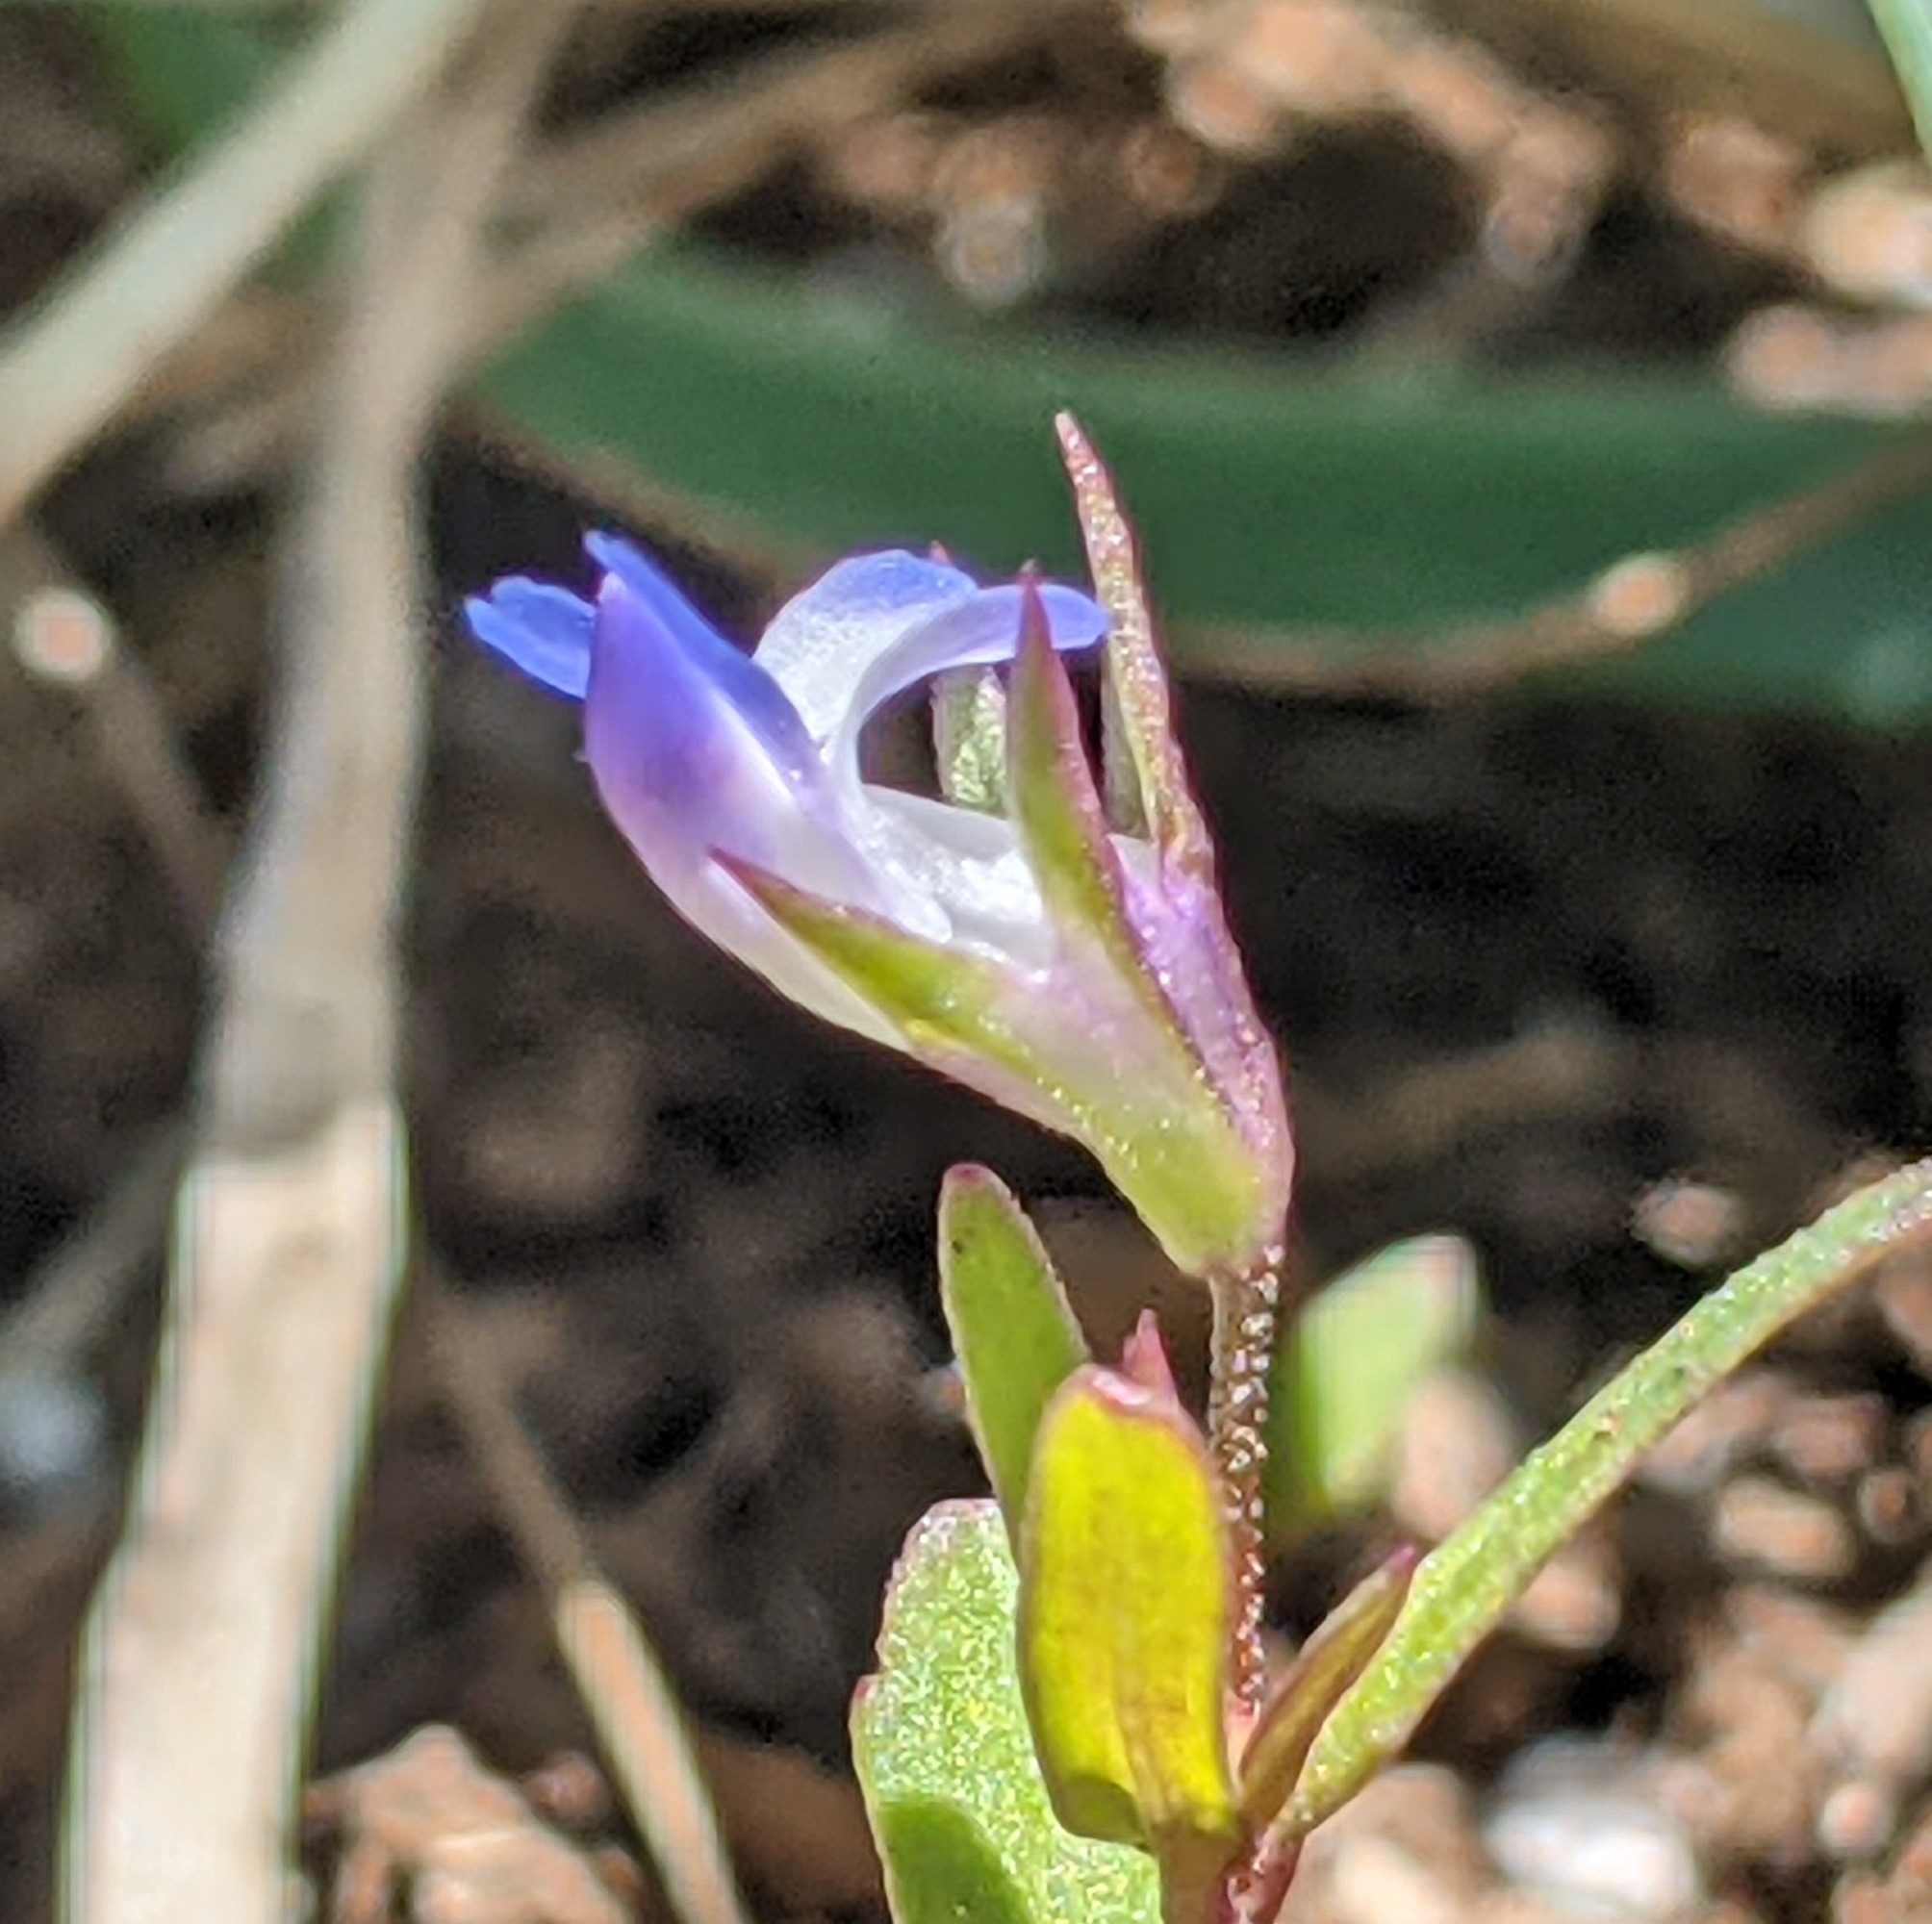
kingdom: Plantae
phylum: Tracheophyta
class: Magnoliopsida
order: Lamiales
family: Plantaginaceae
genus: Collinsia
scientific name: Collinsia parviflora
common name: Blue-lips
